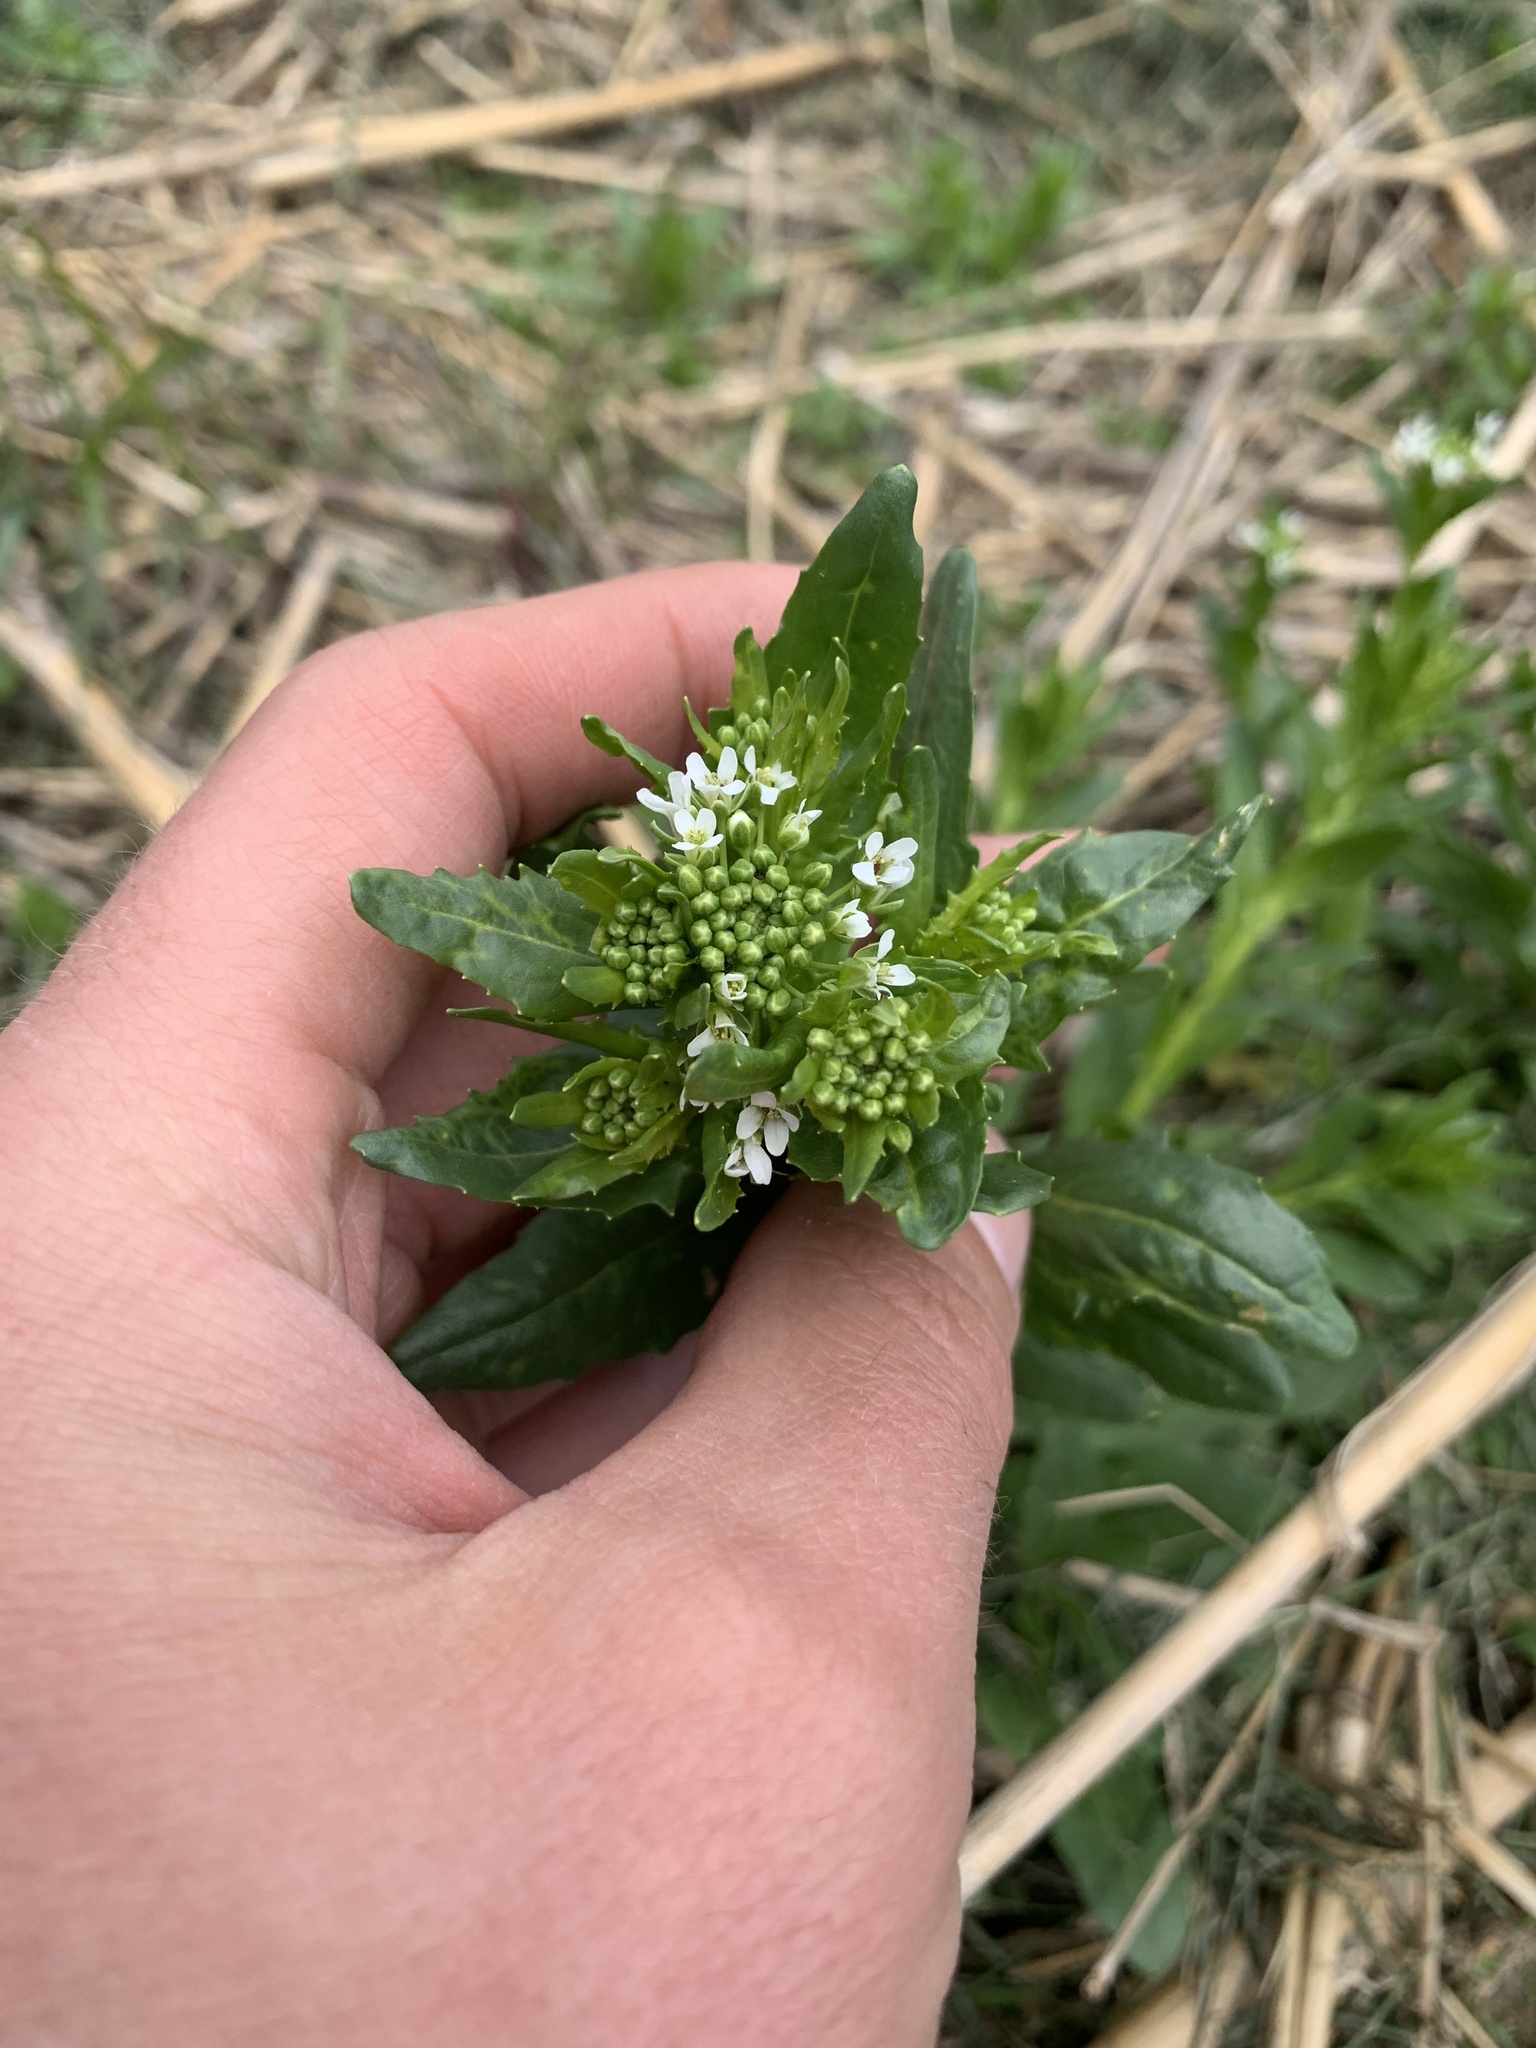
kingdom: Plantae
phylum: Tracheophyta
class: Magnoliopsida
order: Brassicales
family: Brassicaceae
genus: Thlaspi
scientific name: Thlaspi arvense
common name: Field pennycress
